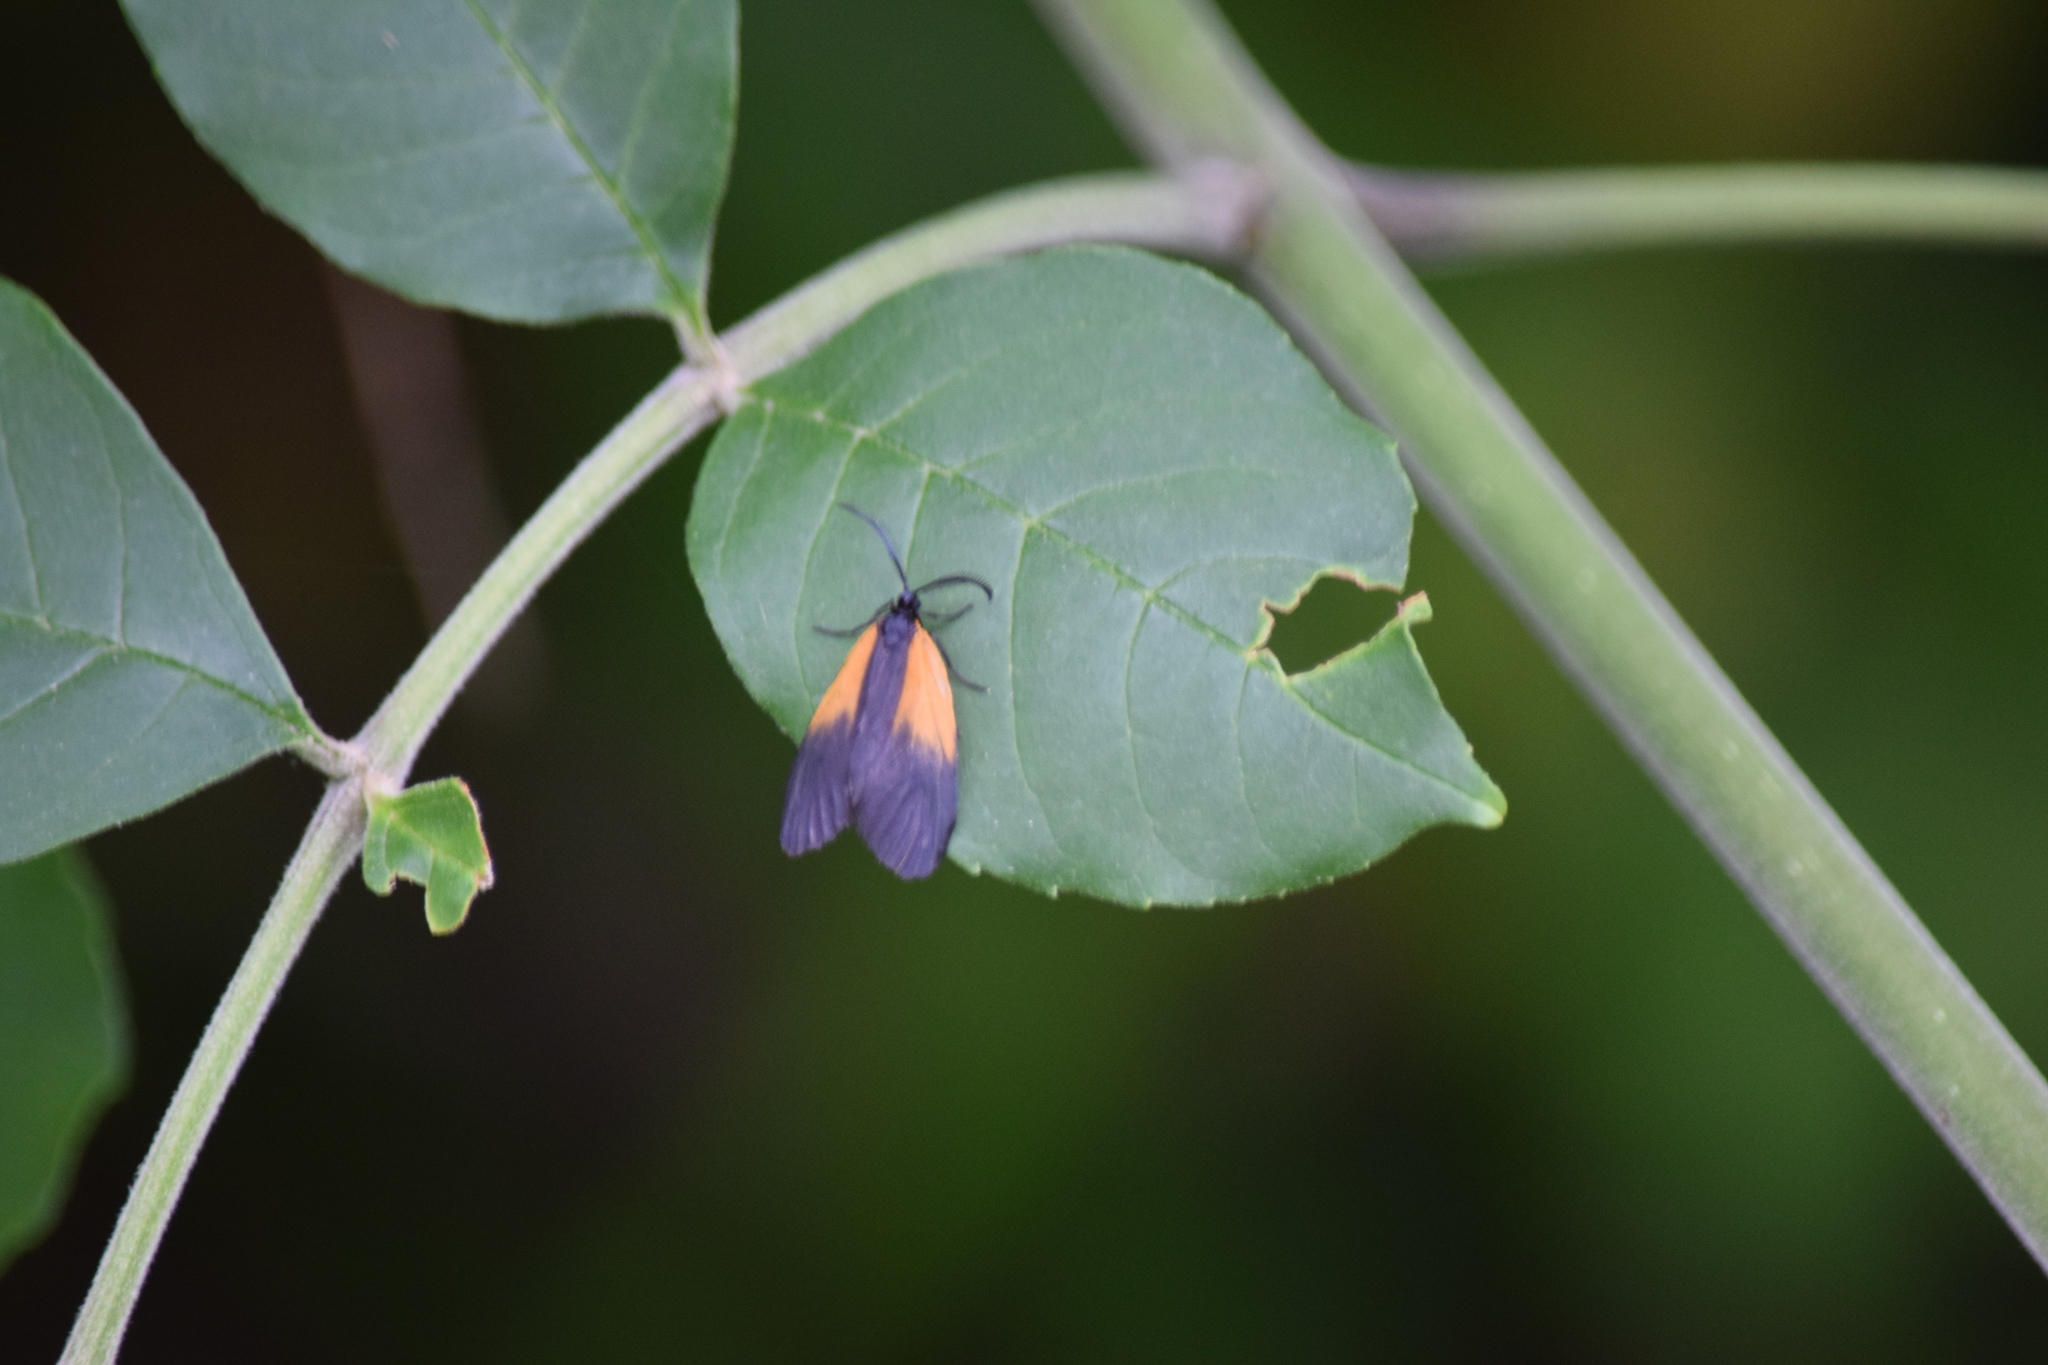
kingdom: Animalia
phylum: Arthropoda
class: Insecta
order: Lepidoptera
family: Zygaenidae
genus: Malthaca
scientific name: Malthaca dimidiata
